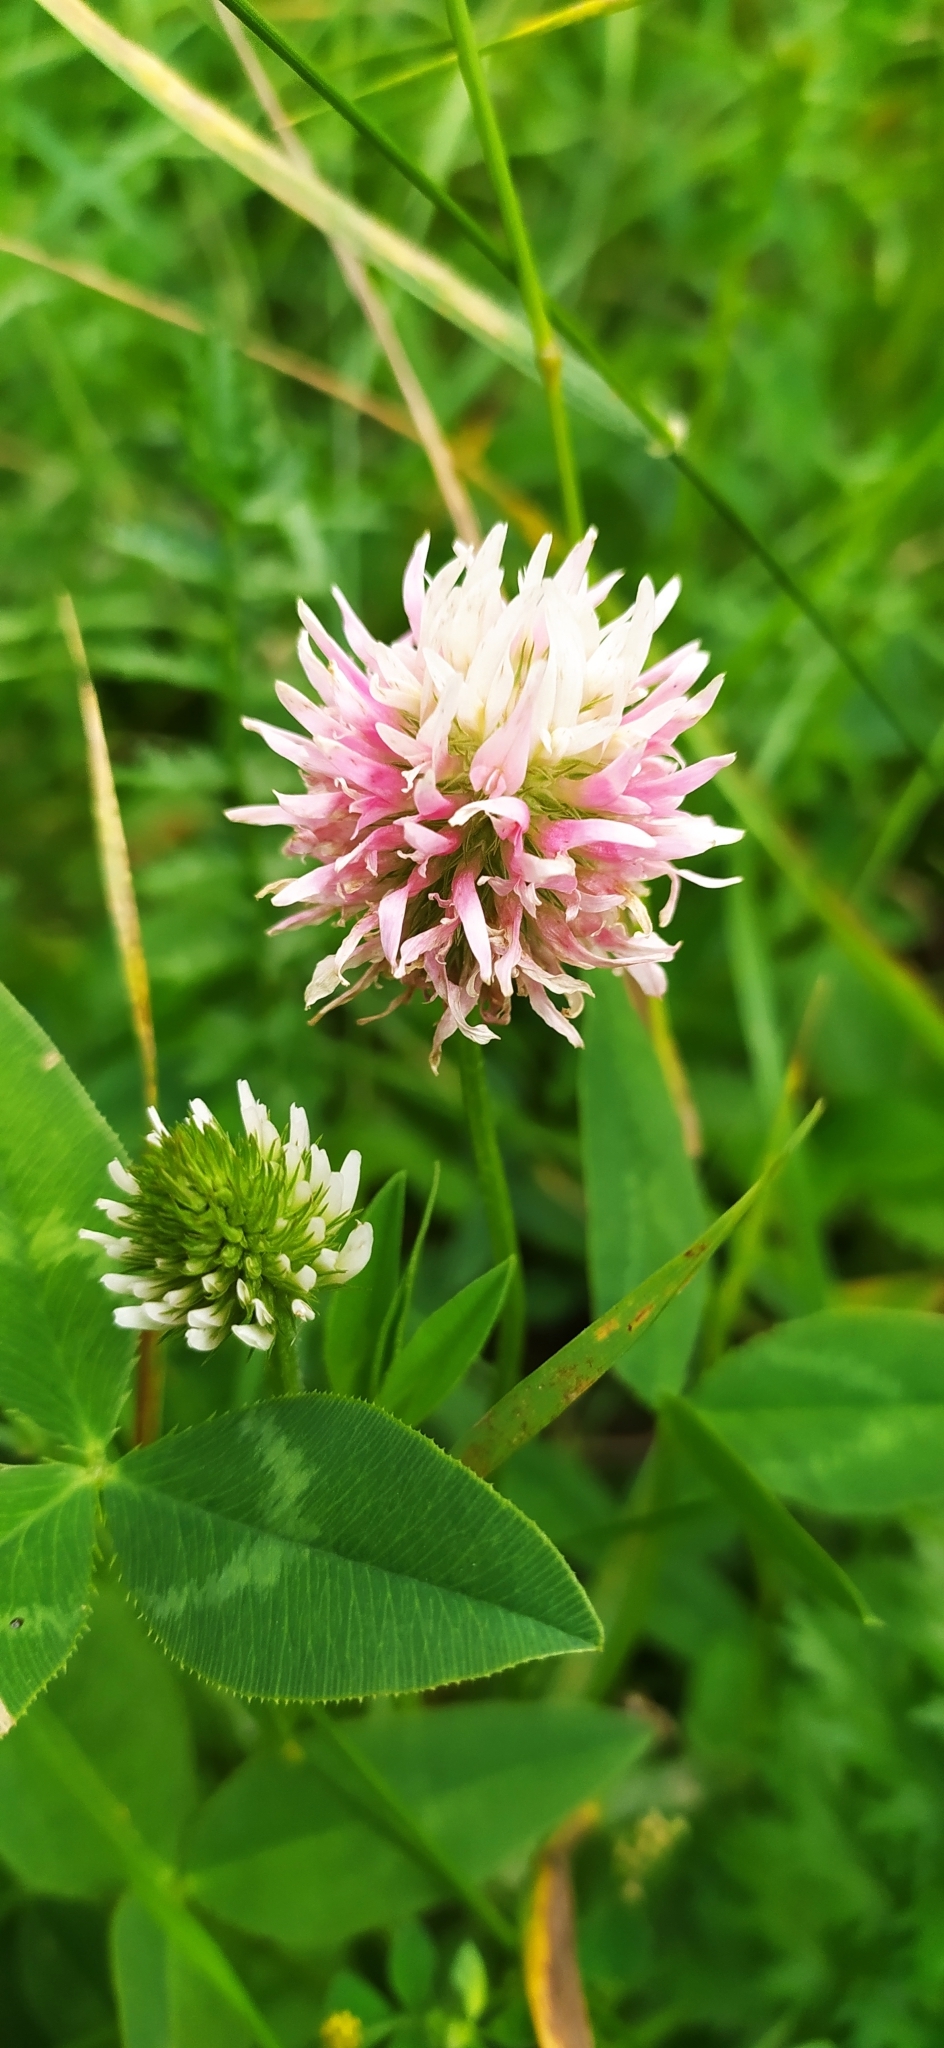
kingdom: Plantae
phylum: Tracheophyta
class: Magnoliopsida
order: Fabales
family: Fabaceae
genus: Trifolium
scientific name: Trifolium ambiguum
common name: Kura clover
